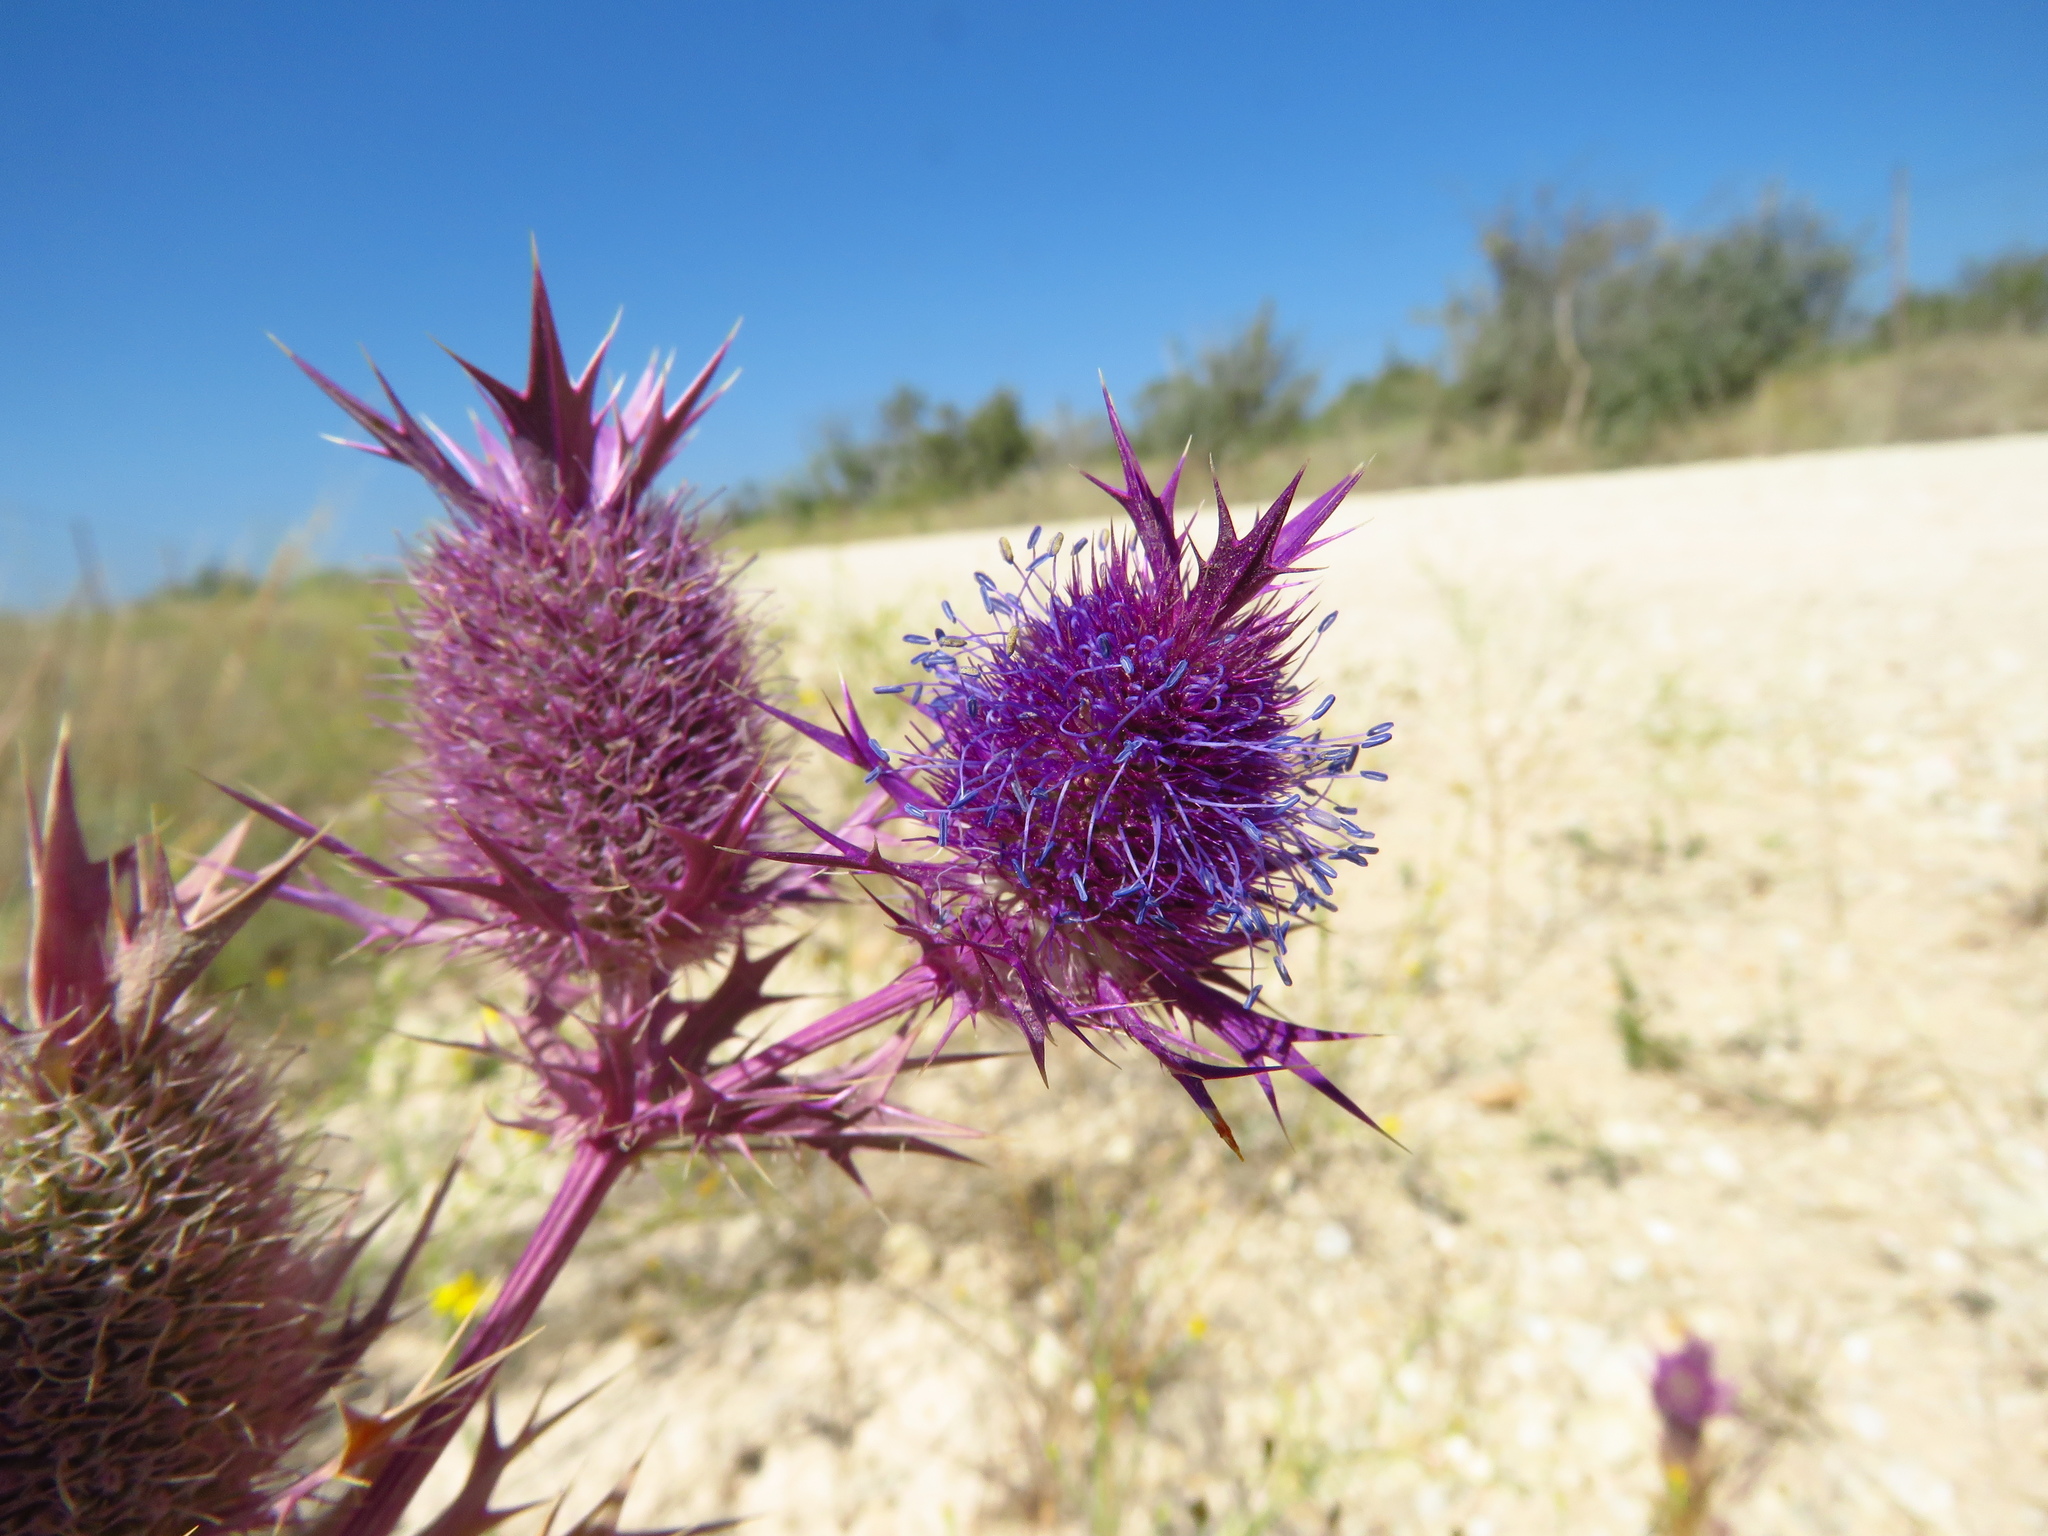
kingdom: Plantae
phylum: Tracheophyta
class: Magnoliopsida
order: Apiales
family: Apiaceae
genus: Eryngium
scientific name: Eryngium leavenworthii
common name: Leavenworth's eryngo
